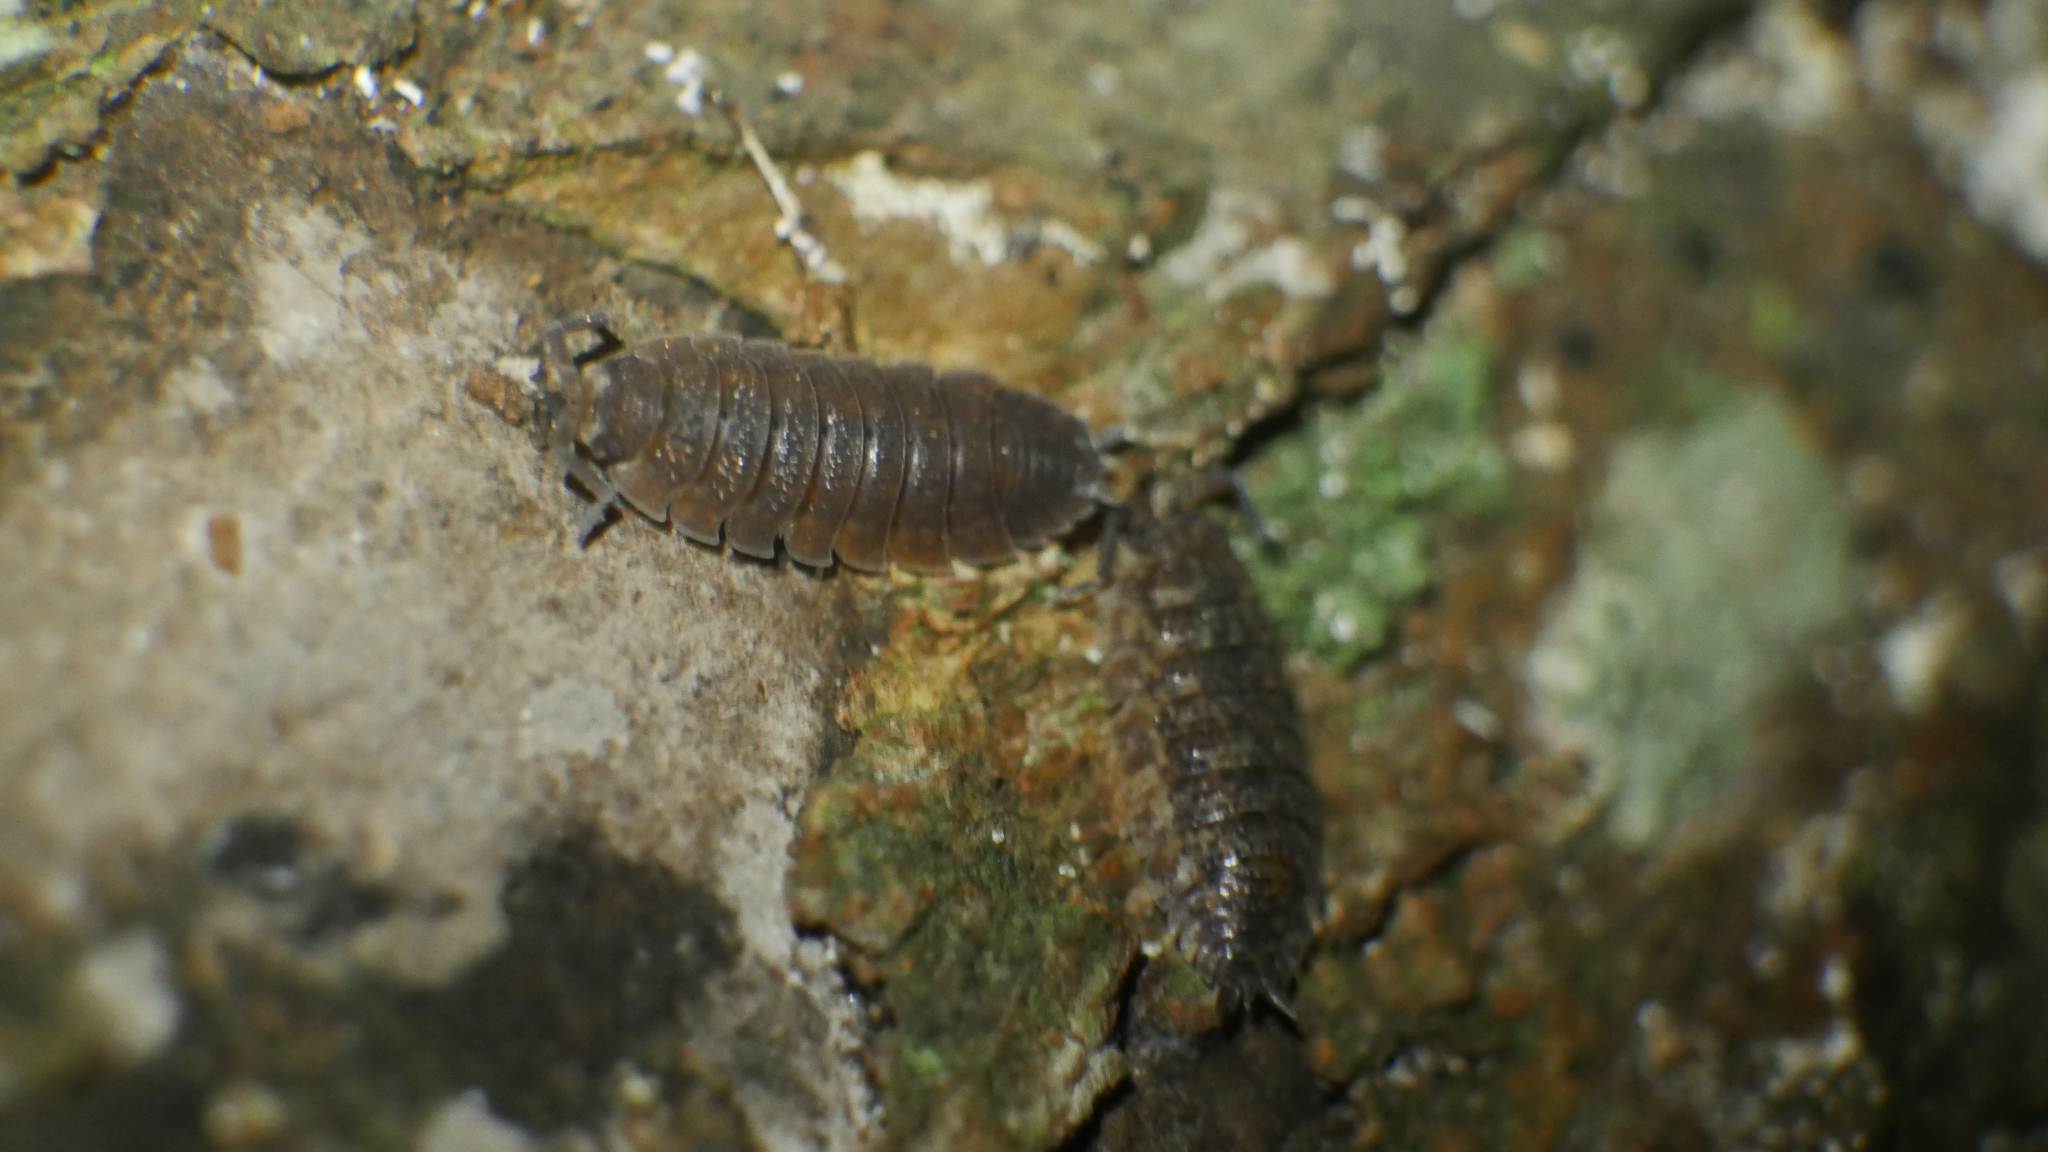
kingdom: Animalia
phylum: Arthropoda
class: Malacostraca
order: Isopoda
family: Porcellionidae
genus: Porcellio
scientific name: Porcellio scaber
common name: Common rough woodlouse
